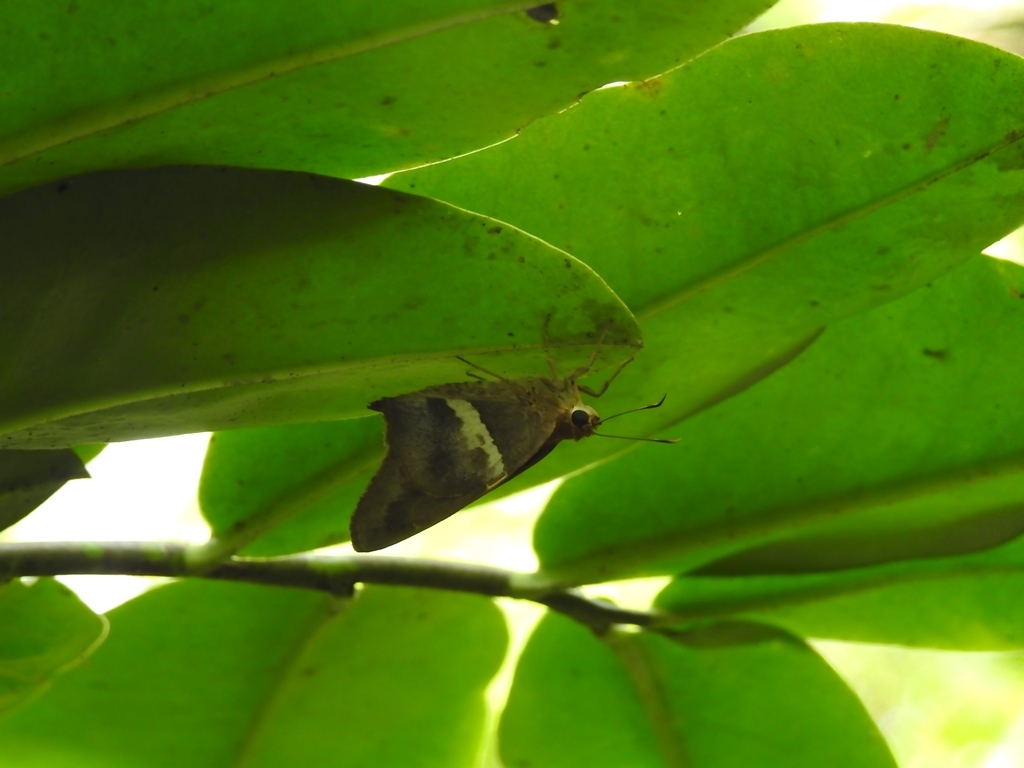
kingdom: Animalia
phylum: Arthropoda
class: Insecta
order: Lepidoptera
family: Hesperiidae
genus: Aguna
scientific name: Aguna asander
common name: Gold-spotted aguna
